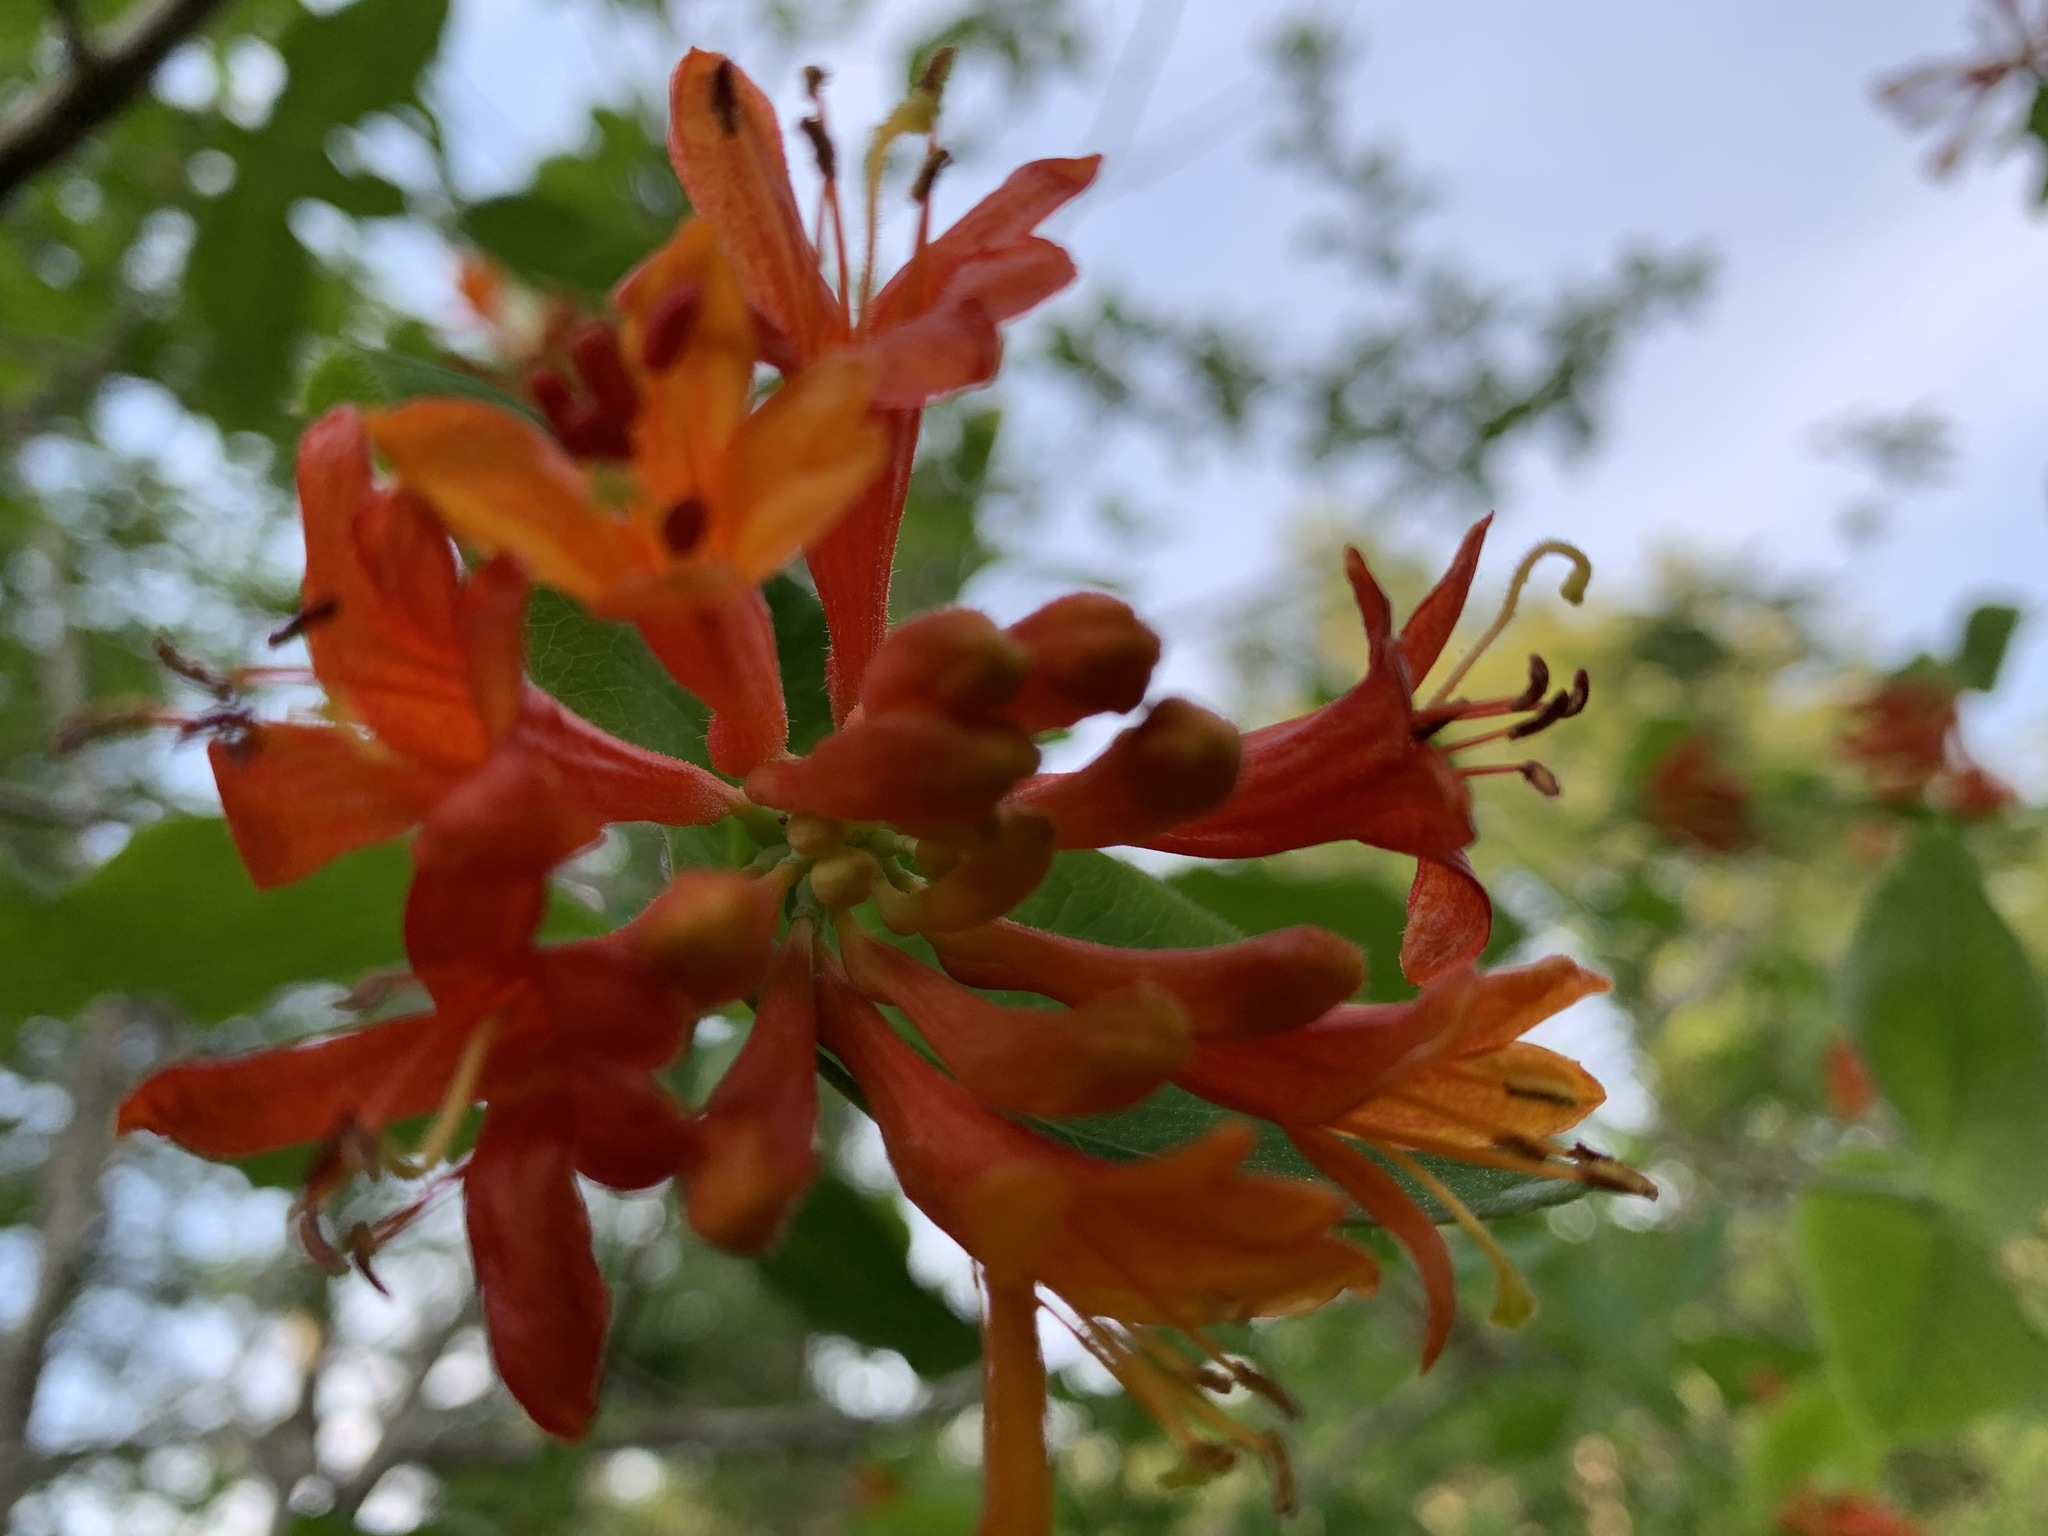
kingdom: Plantae
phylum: Tracheophyta
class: Magnoliopsida
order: Dipsacales
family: Caprifoliaceae
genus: Lonicera
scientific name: Lonicera ciliosa
